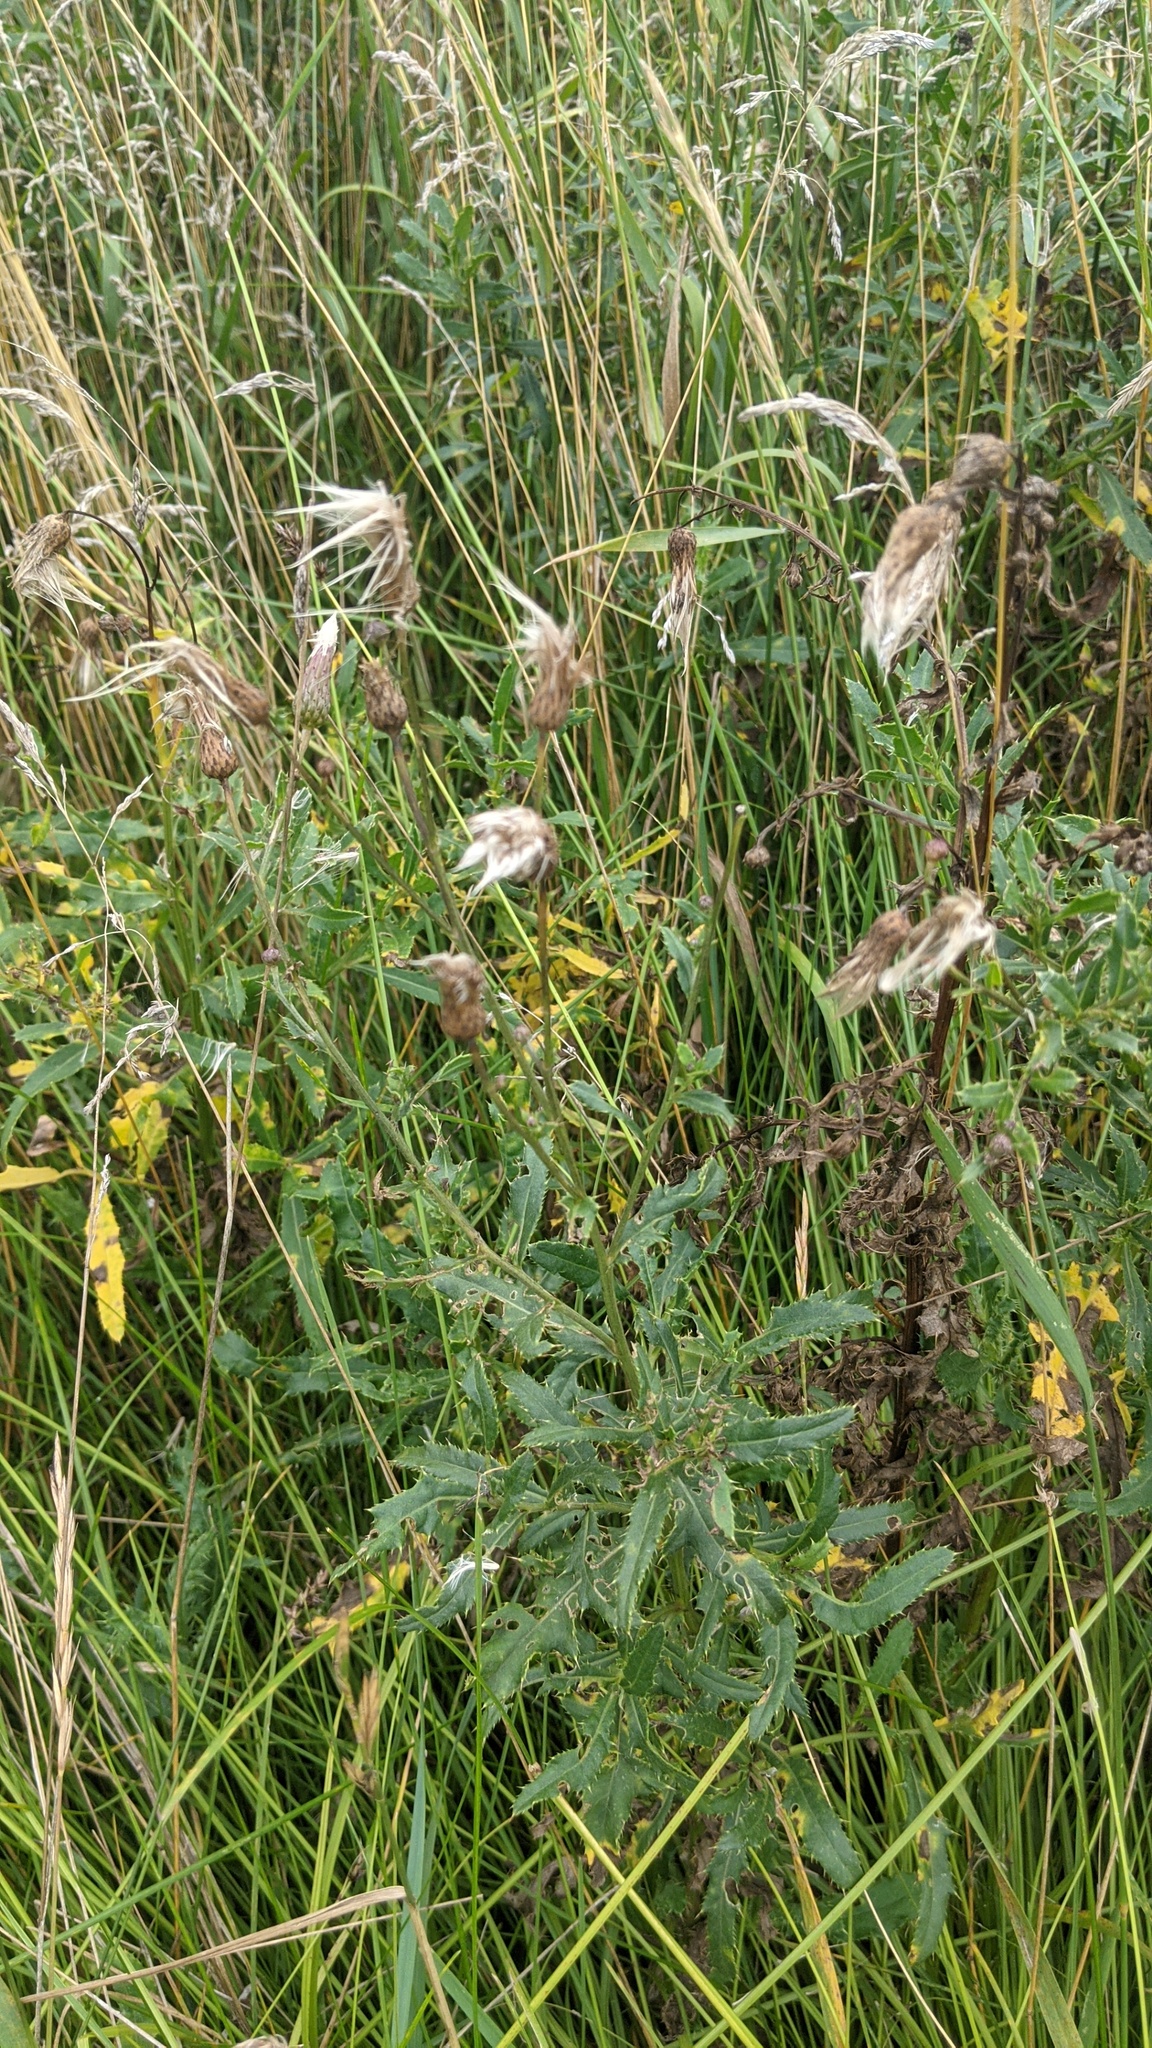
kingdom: Plantae
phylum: Tracheophyta
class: Magnoliopsida
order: Asterales
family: Asteraceae
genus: Cirsium
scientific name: Cirsium arvense
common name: Creeping thistle
